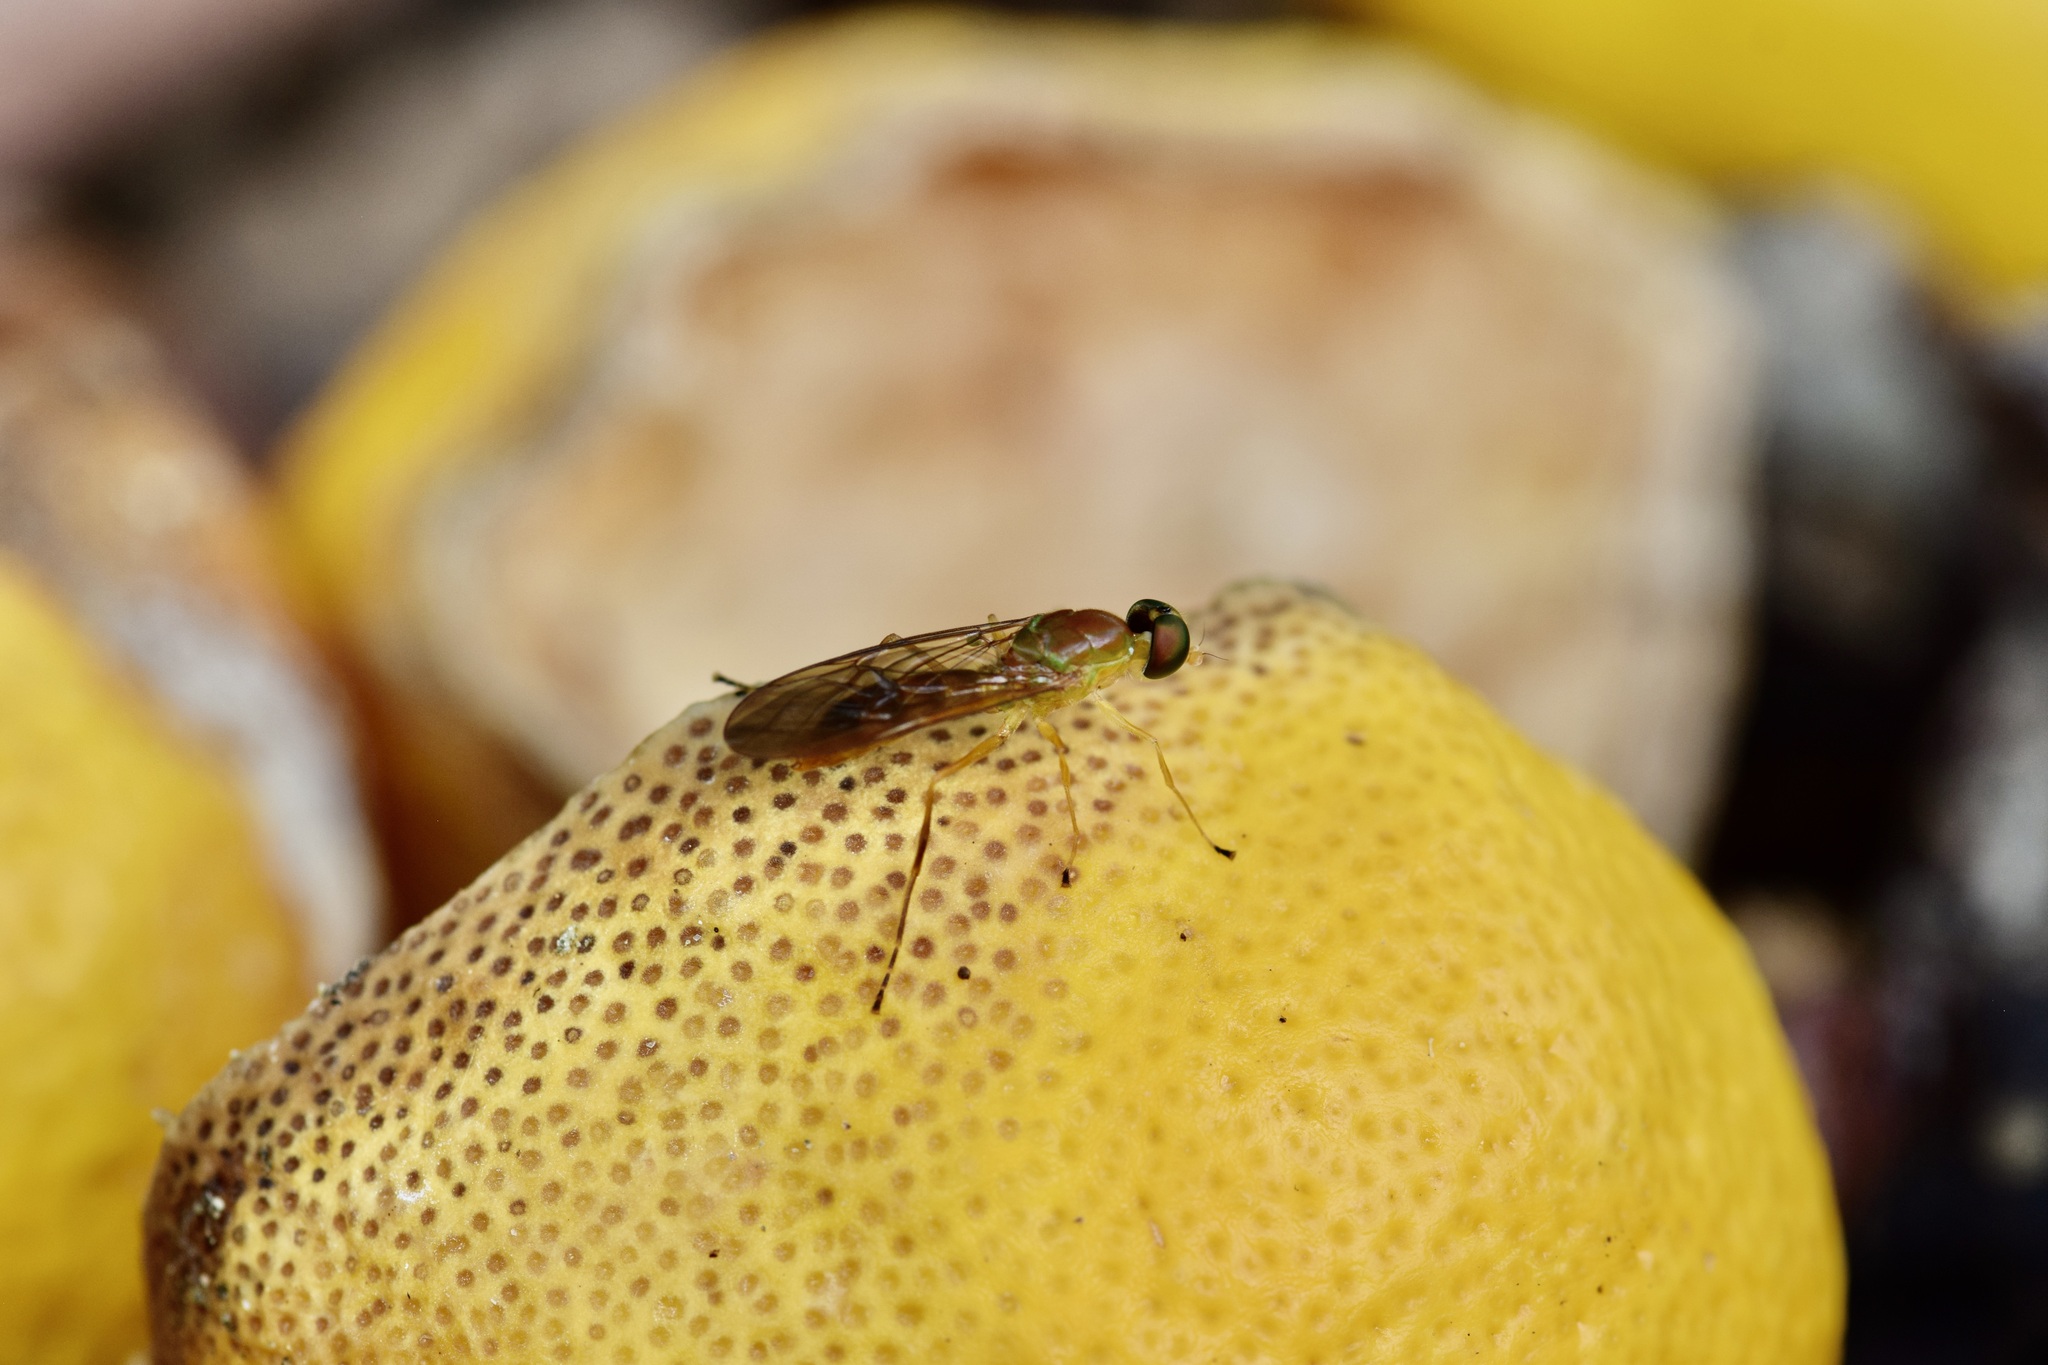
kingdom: Animalia
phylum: Arthropoda
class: Insecta
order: Diptera
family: Stratiomyidae
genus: Ptecticus
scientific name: Ptecticus trivittatus
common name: Compost fly
